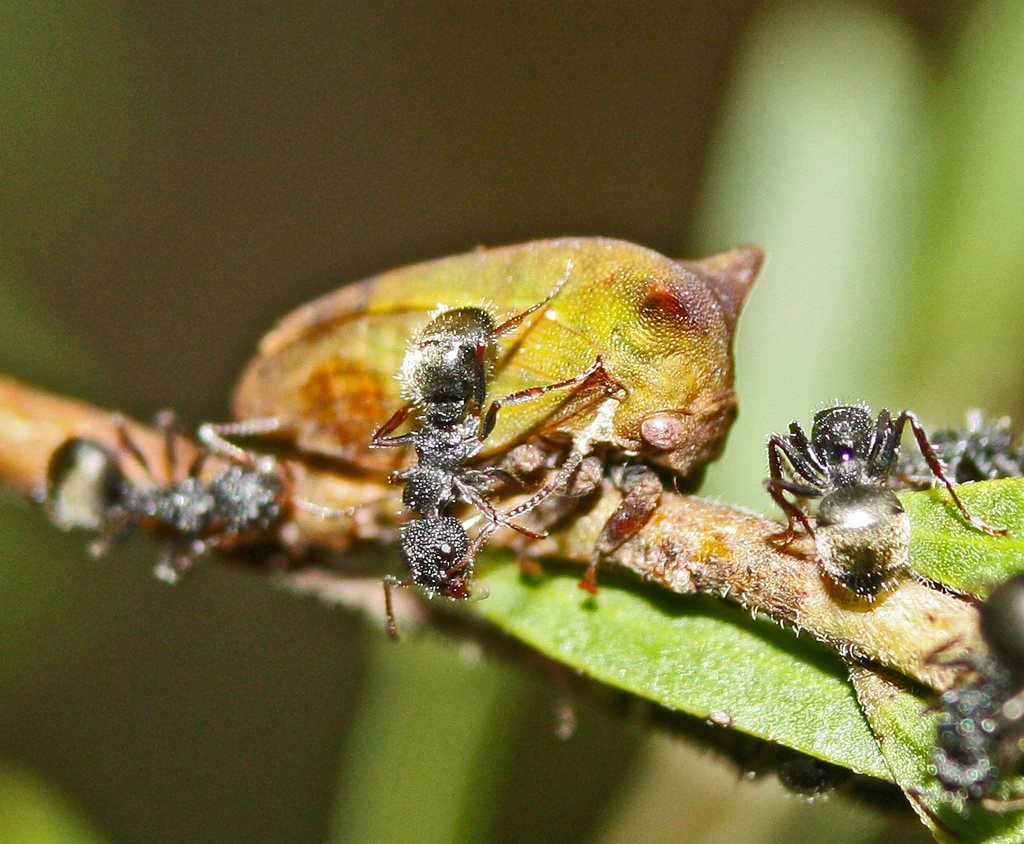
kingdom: Animalia
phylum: Arthropoda
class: Insecta
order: Hemiptera
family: Membracidae
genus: Sextius
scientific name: Sextius virescens
